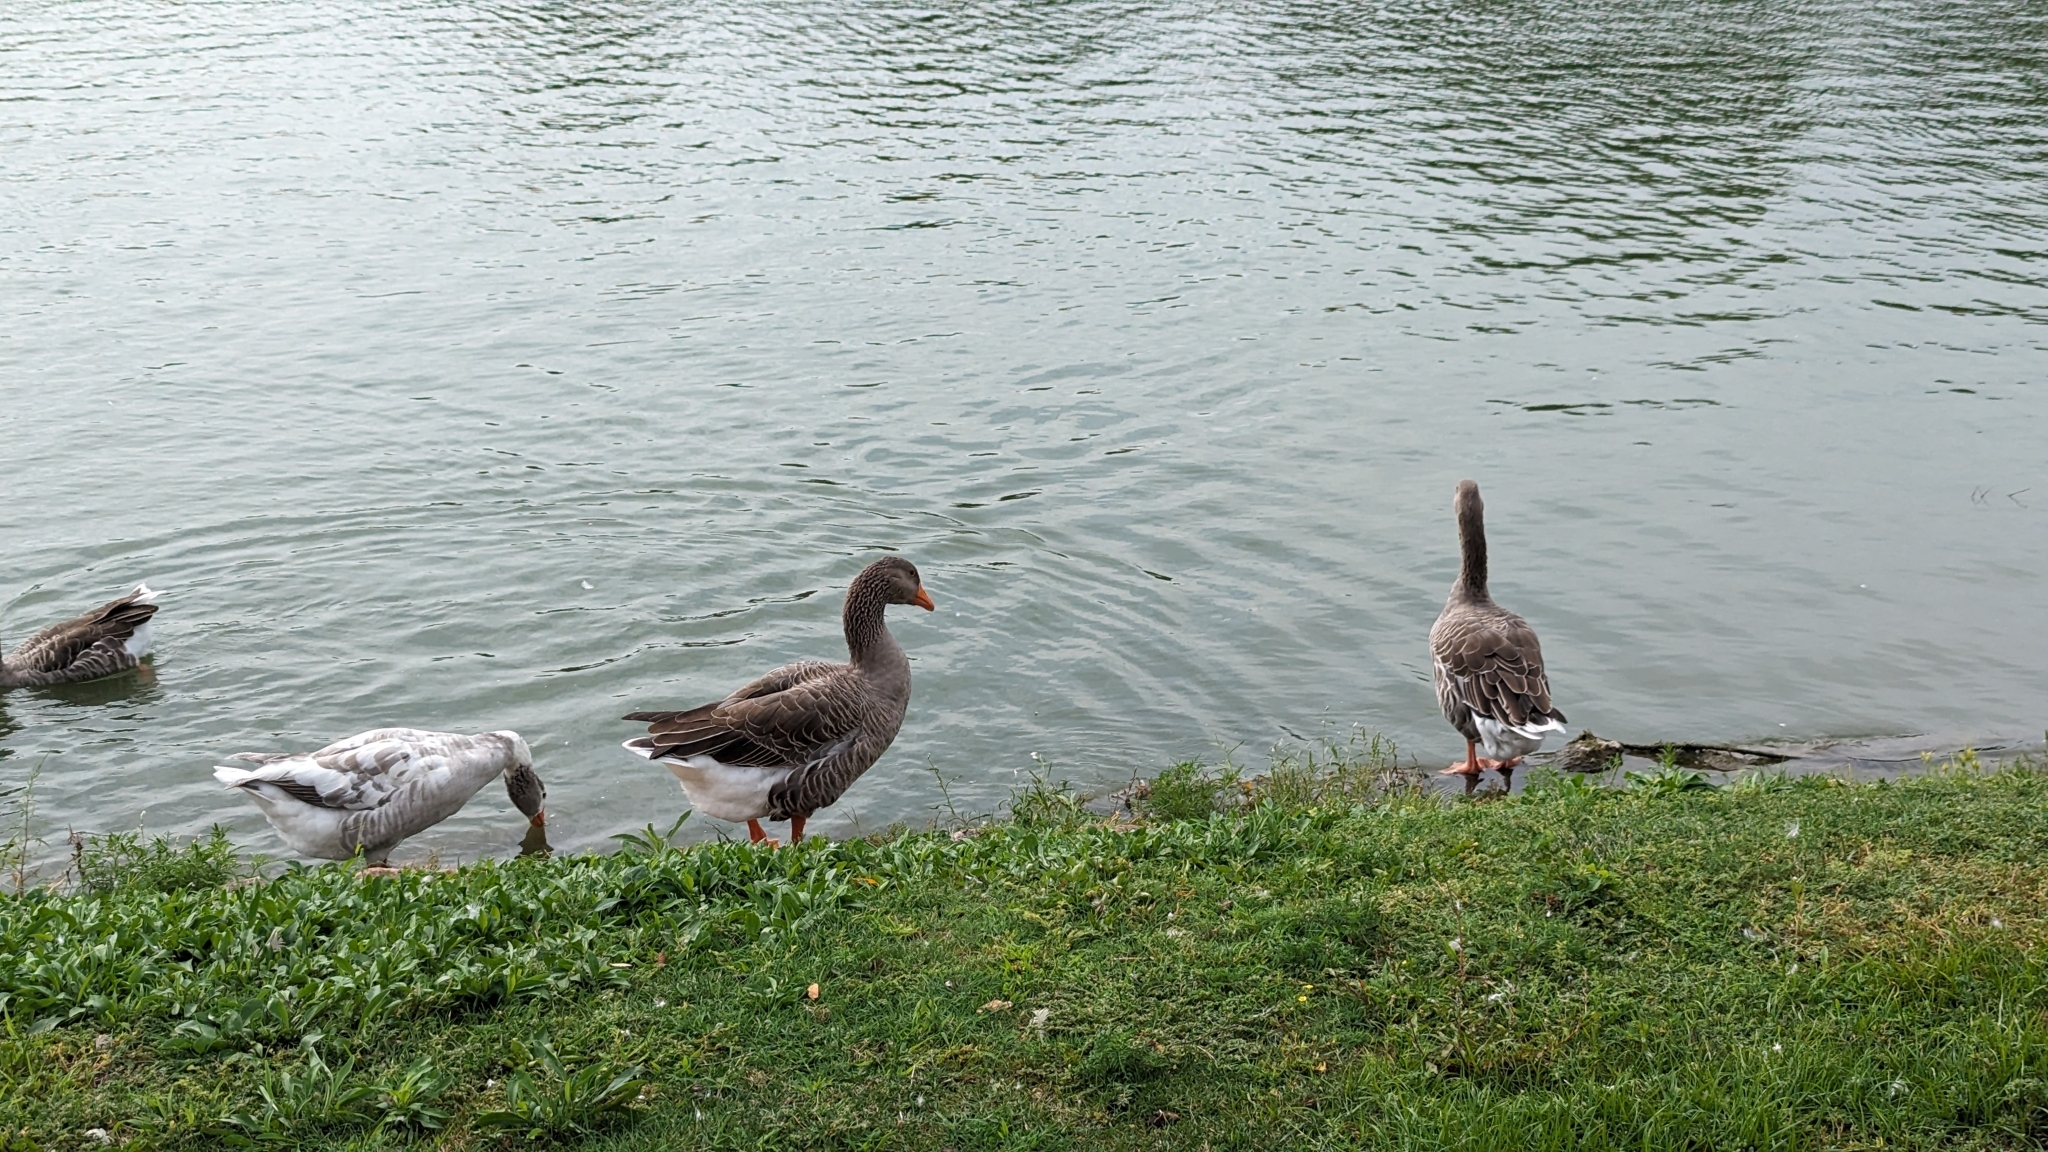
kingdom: Animalia
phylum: Chordata
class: Aves
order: Anseriformes
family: Anatidae
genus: Anser
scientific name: Anser anser
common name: Greylag goose
